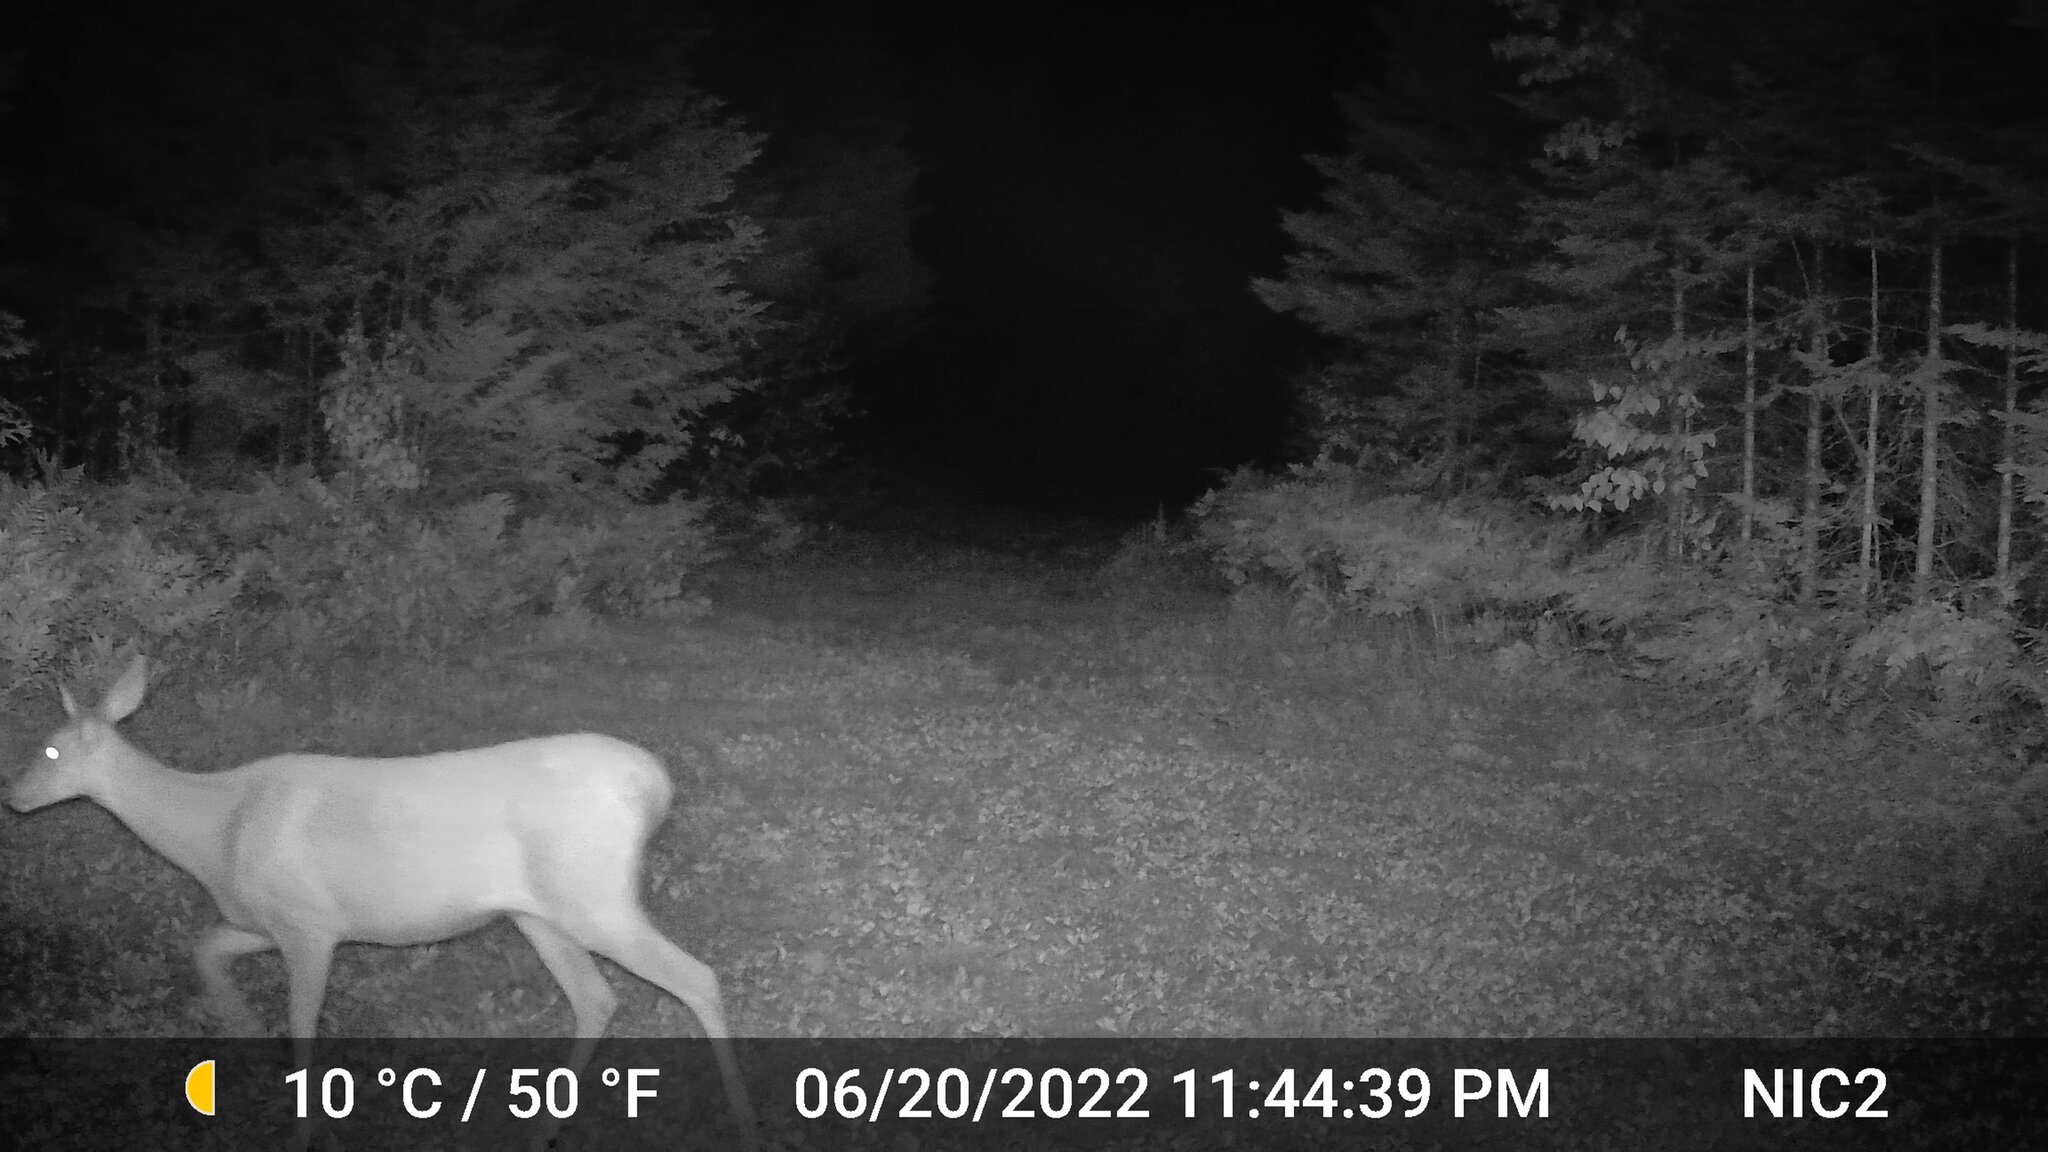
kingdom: Animalia
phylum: Chordata
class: Mammalia
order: Artiodactyla
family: Cervidae
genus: Odocoileus
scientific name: Odocoileus virginianus
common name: White-tailed deer
